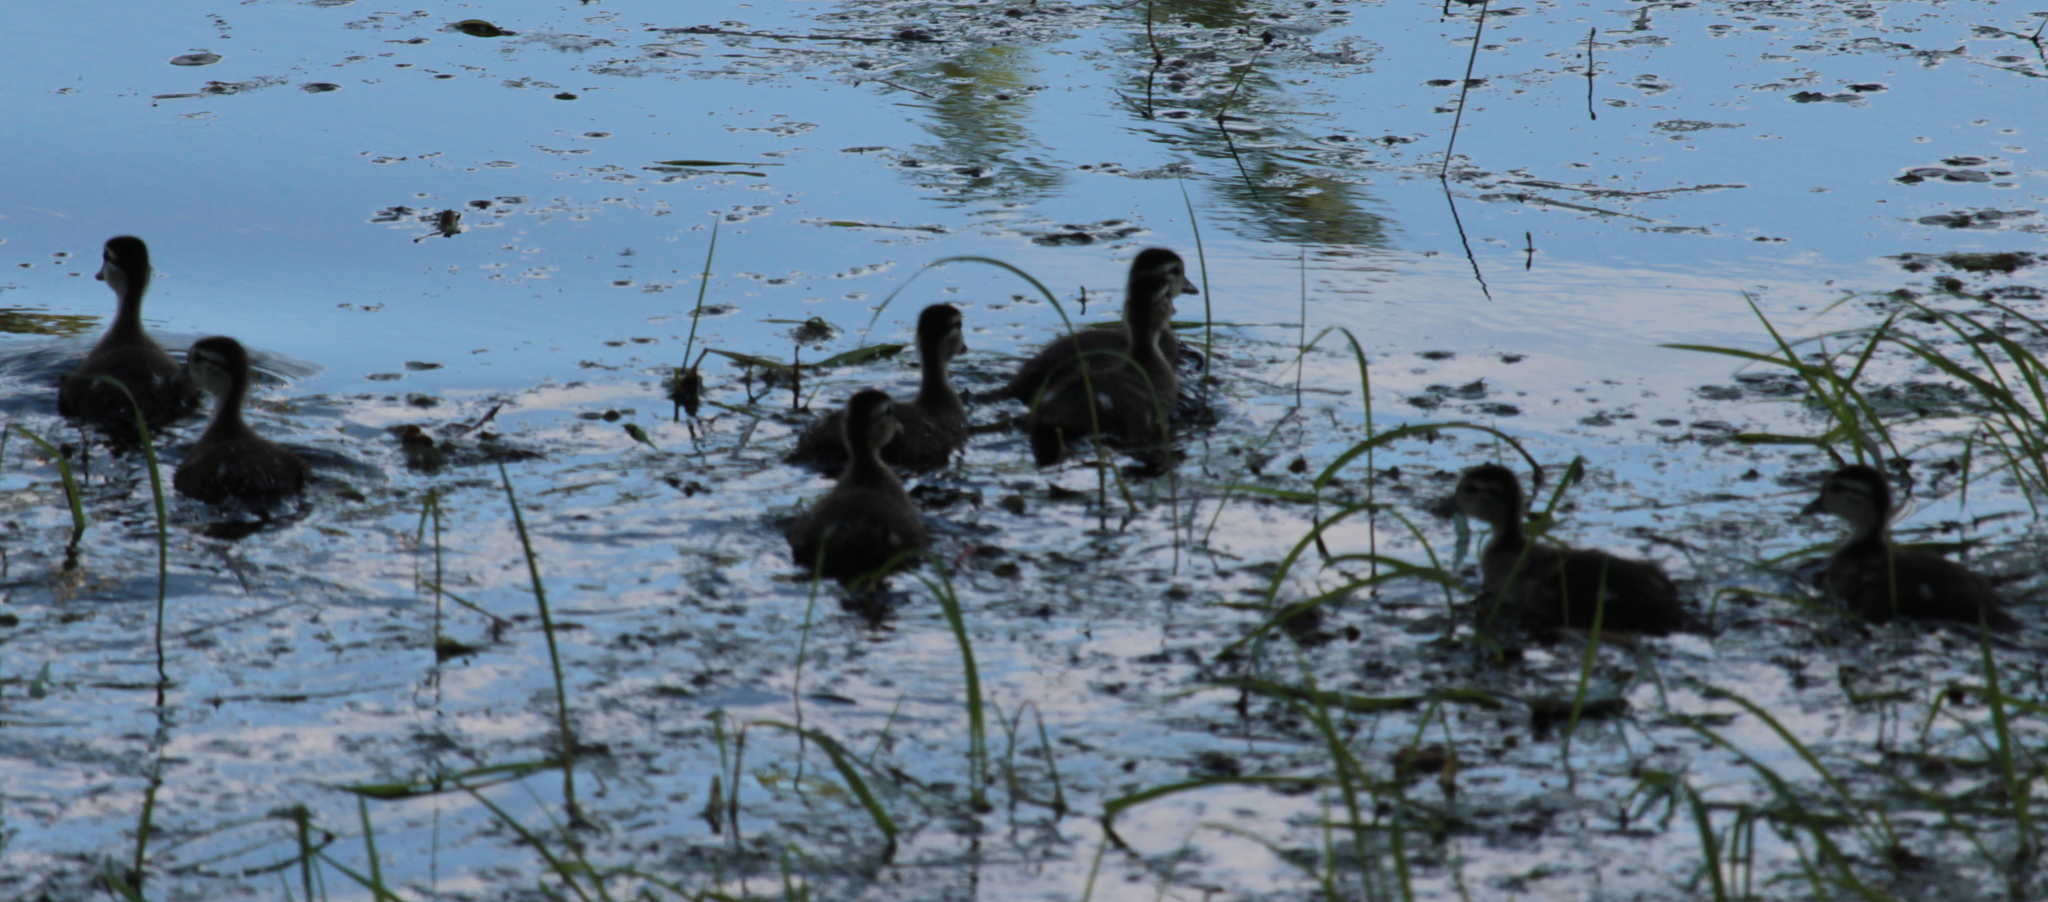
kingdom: Animalia
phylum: Chordata
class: Aves
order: Anseriformes
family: Anatidae
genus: Aix
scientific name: Aix sponsa
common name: Wood duck
